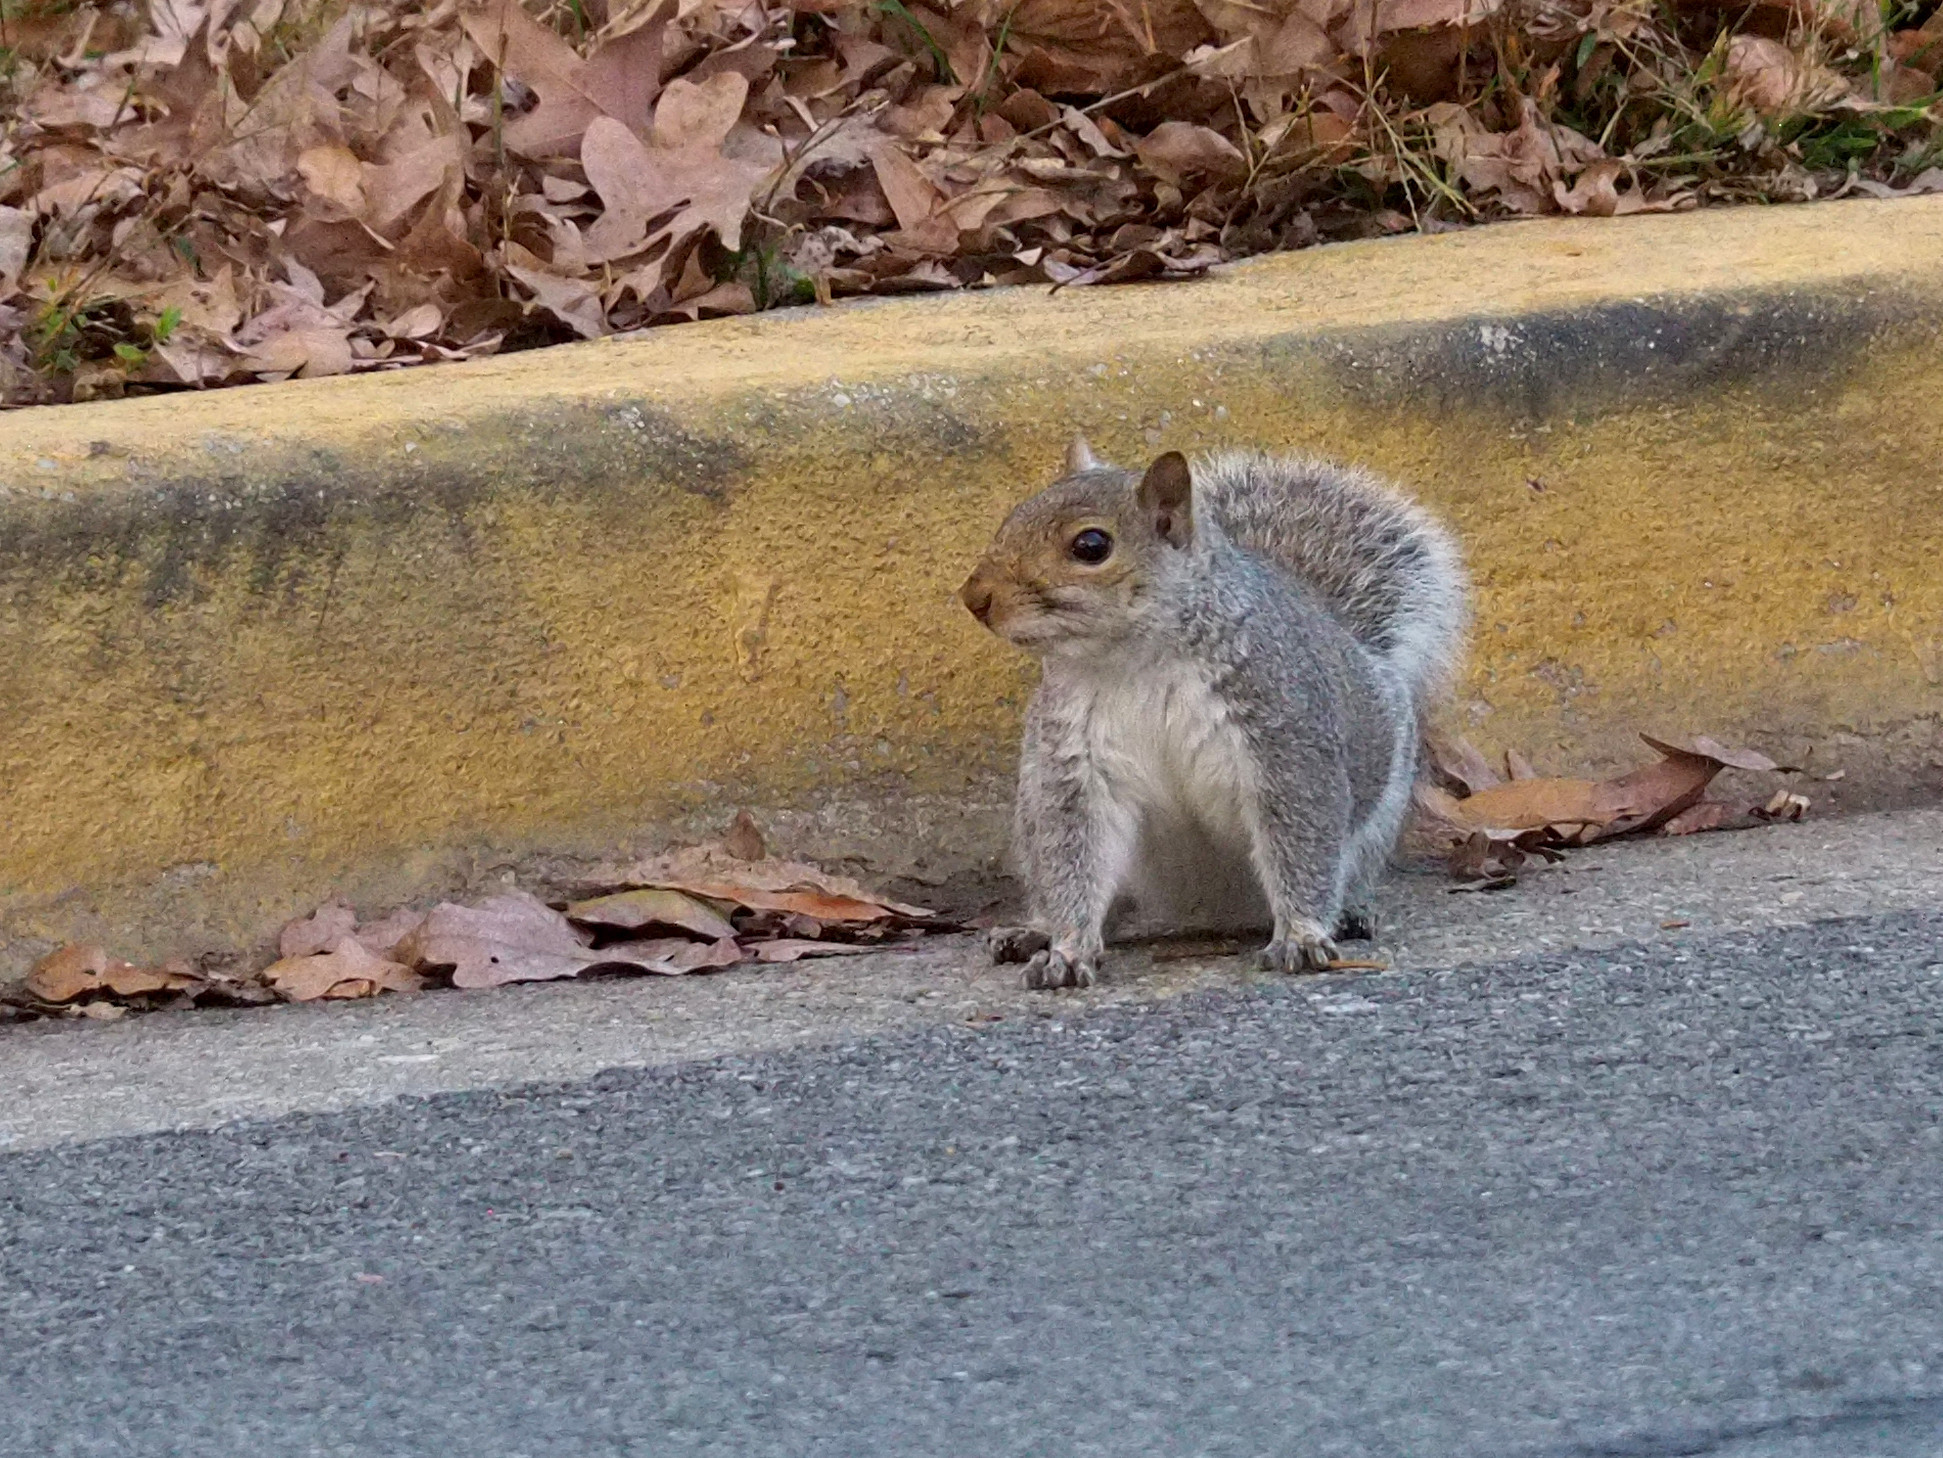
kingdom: Animalia
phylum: Chordata
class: Mammalia
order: Rodentia
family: Sciuridae
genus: Sciurus
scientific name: Sciurus carolinensis
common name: Eastern gray squirrel
